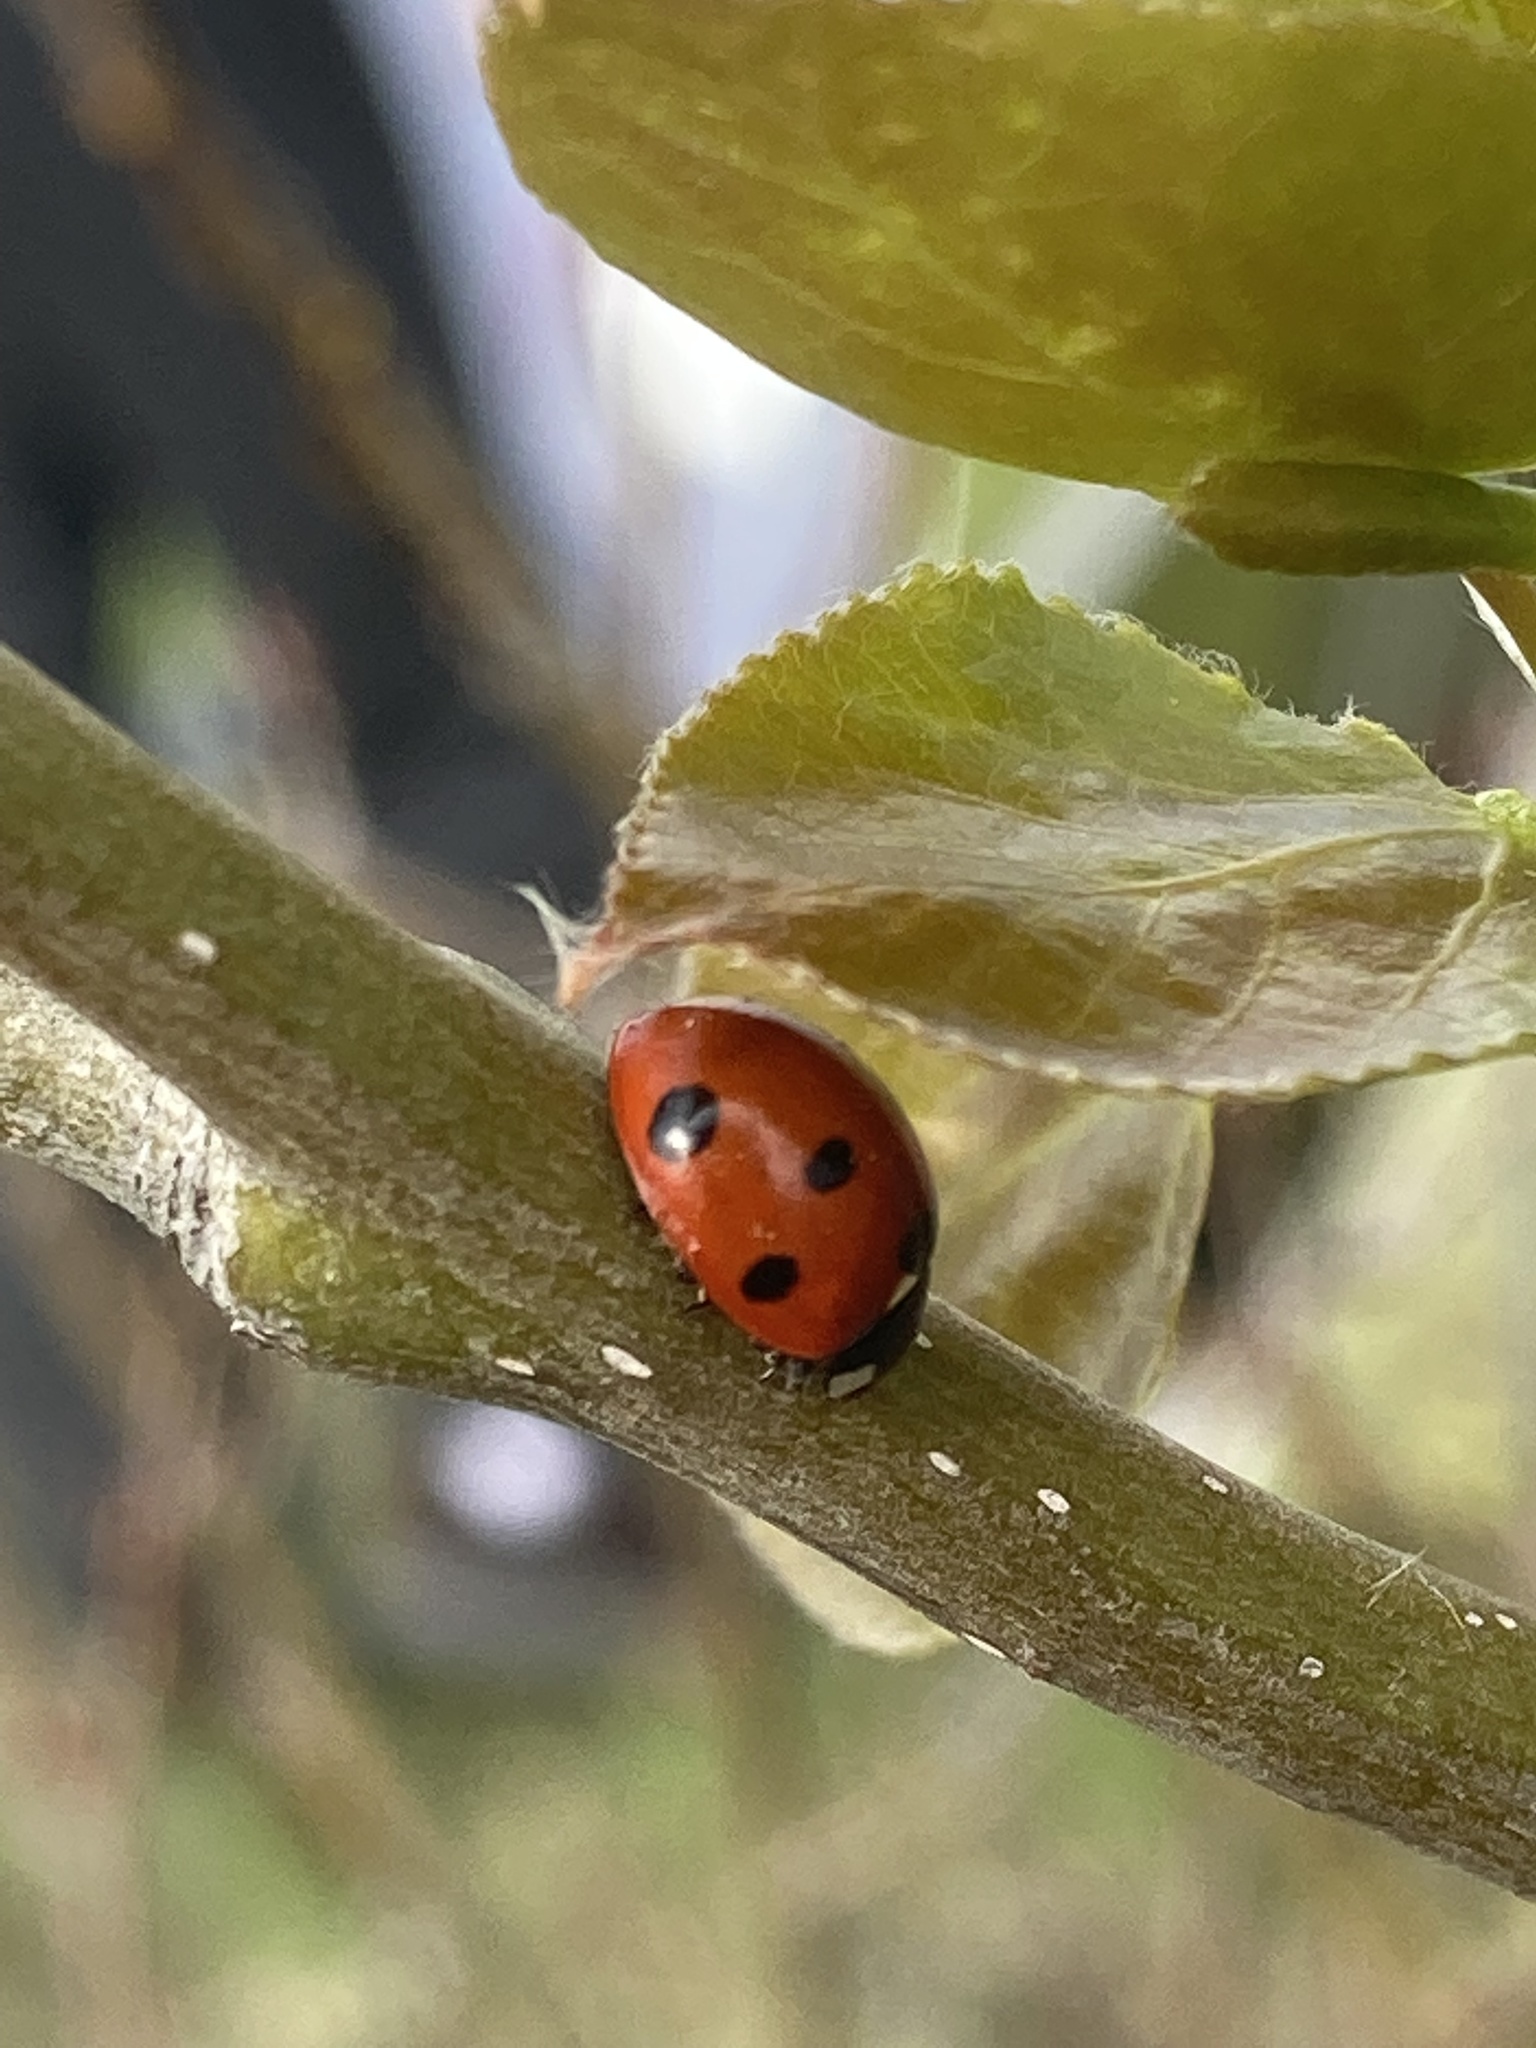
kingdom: Animalia
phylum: Arthropoda
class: Insecta
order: Coleoptera
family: Coccinellidae
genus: Coccinella
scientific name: Coccinella septempunctata
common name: Sevenspotted lady beetle
